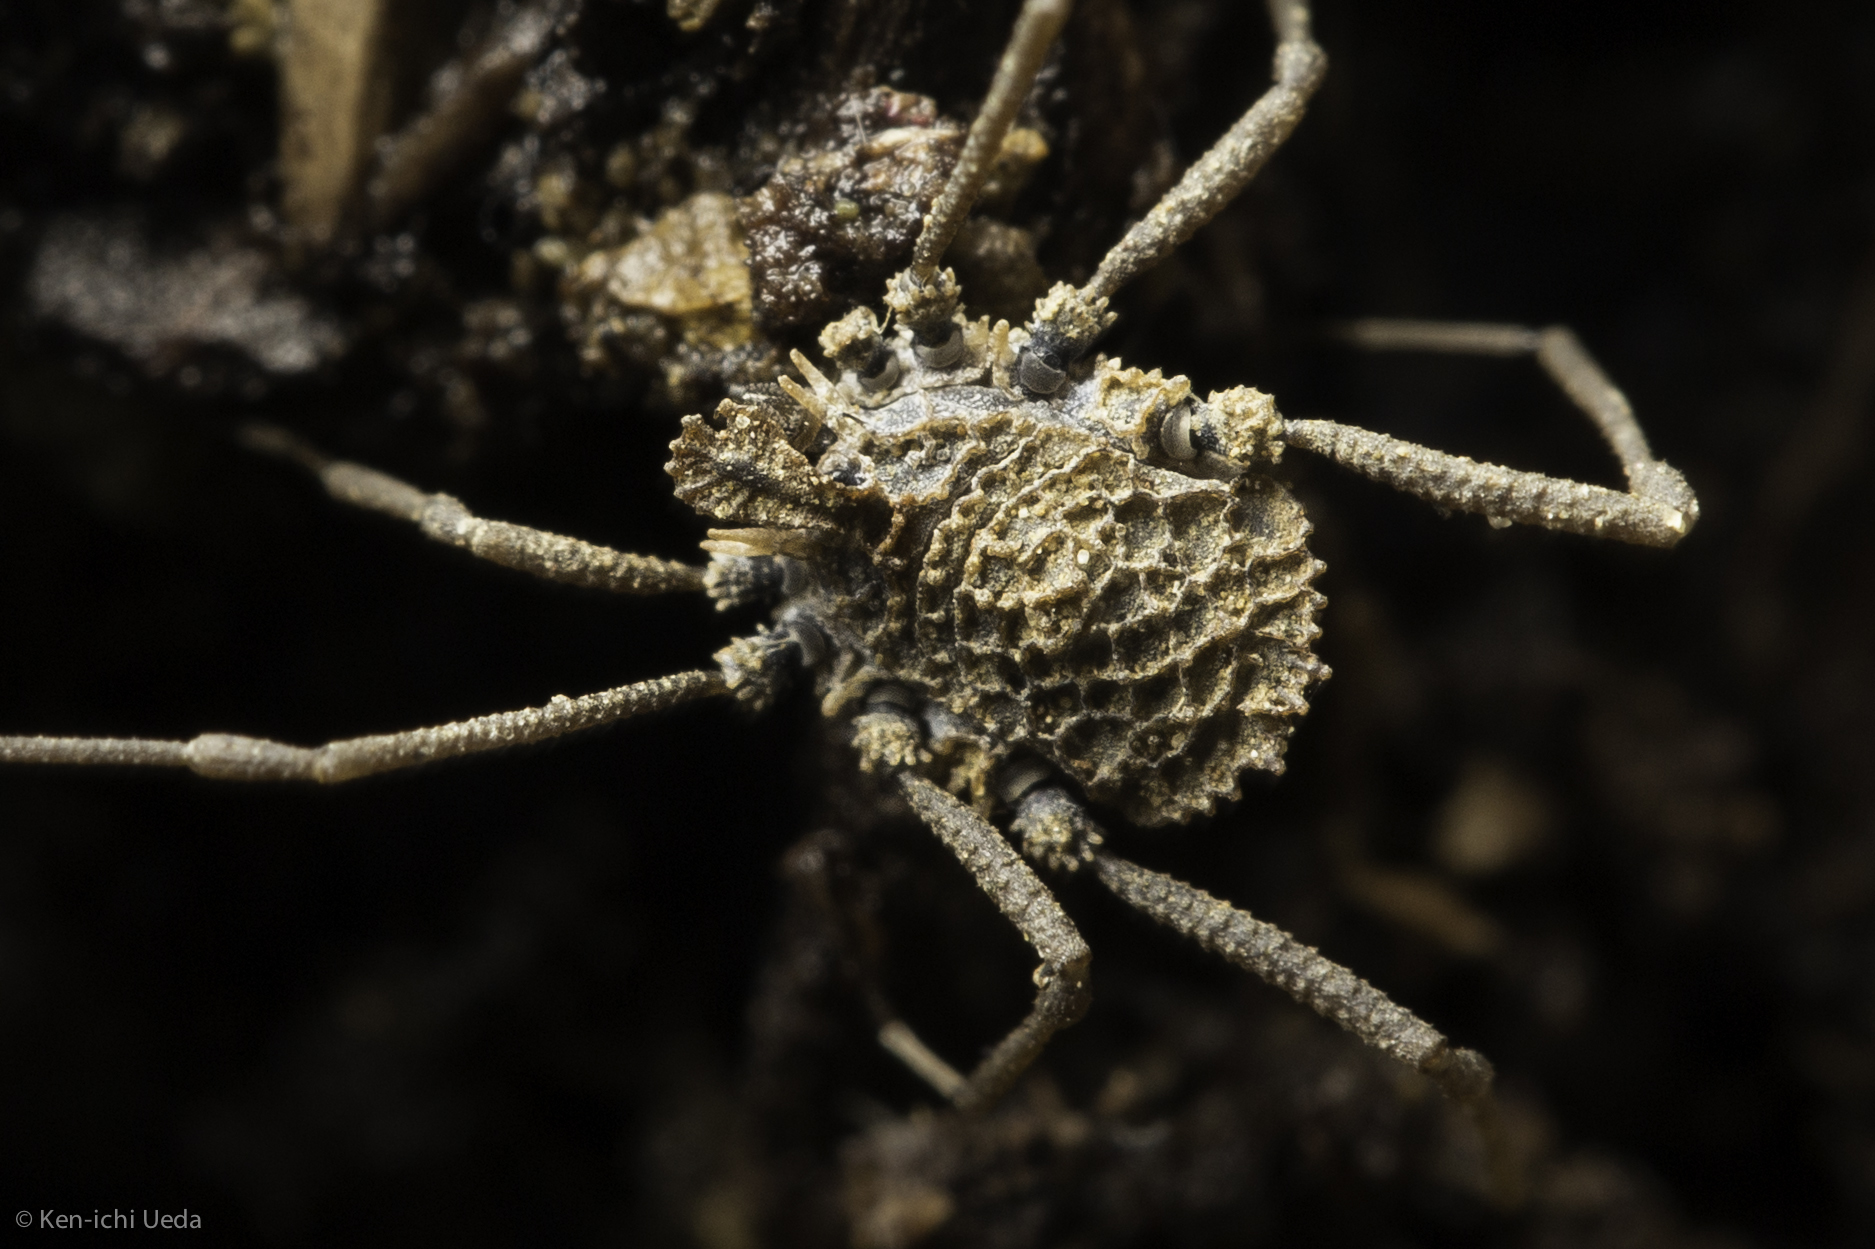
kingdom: Animalia
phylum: Arthropoda
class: Arachnida
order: Opiliones
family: Nemastomatidae
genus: Ortholasma
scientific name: Ortholasma rugosum
